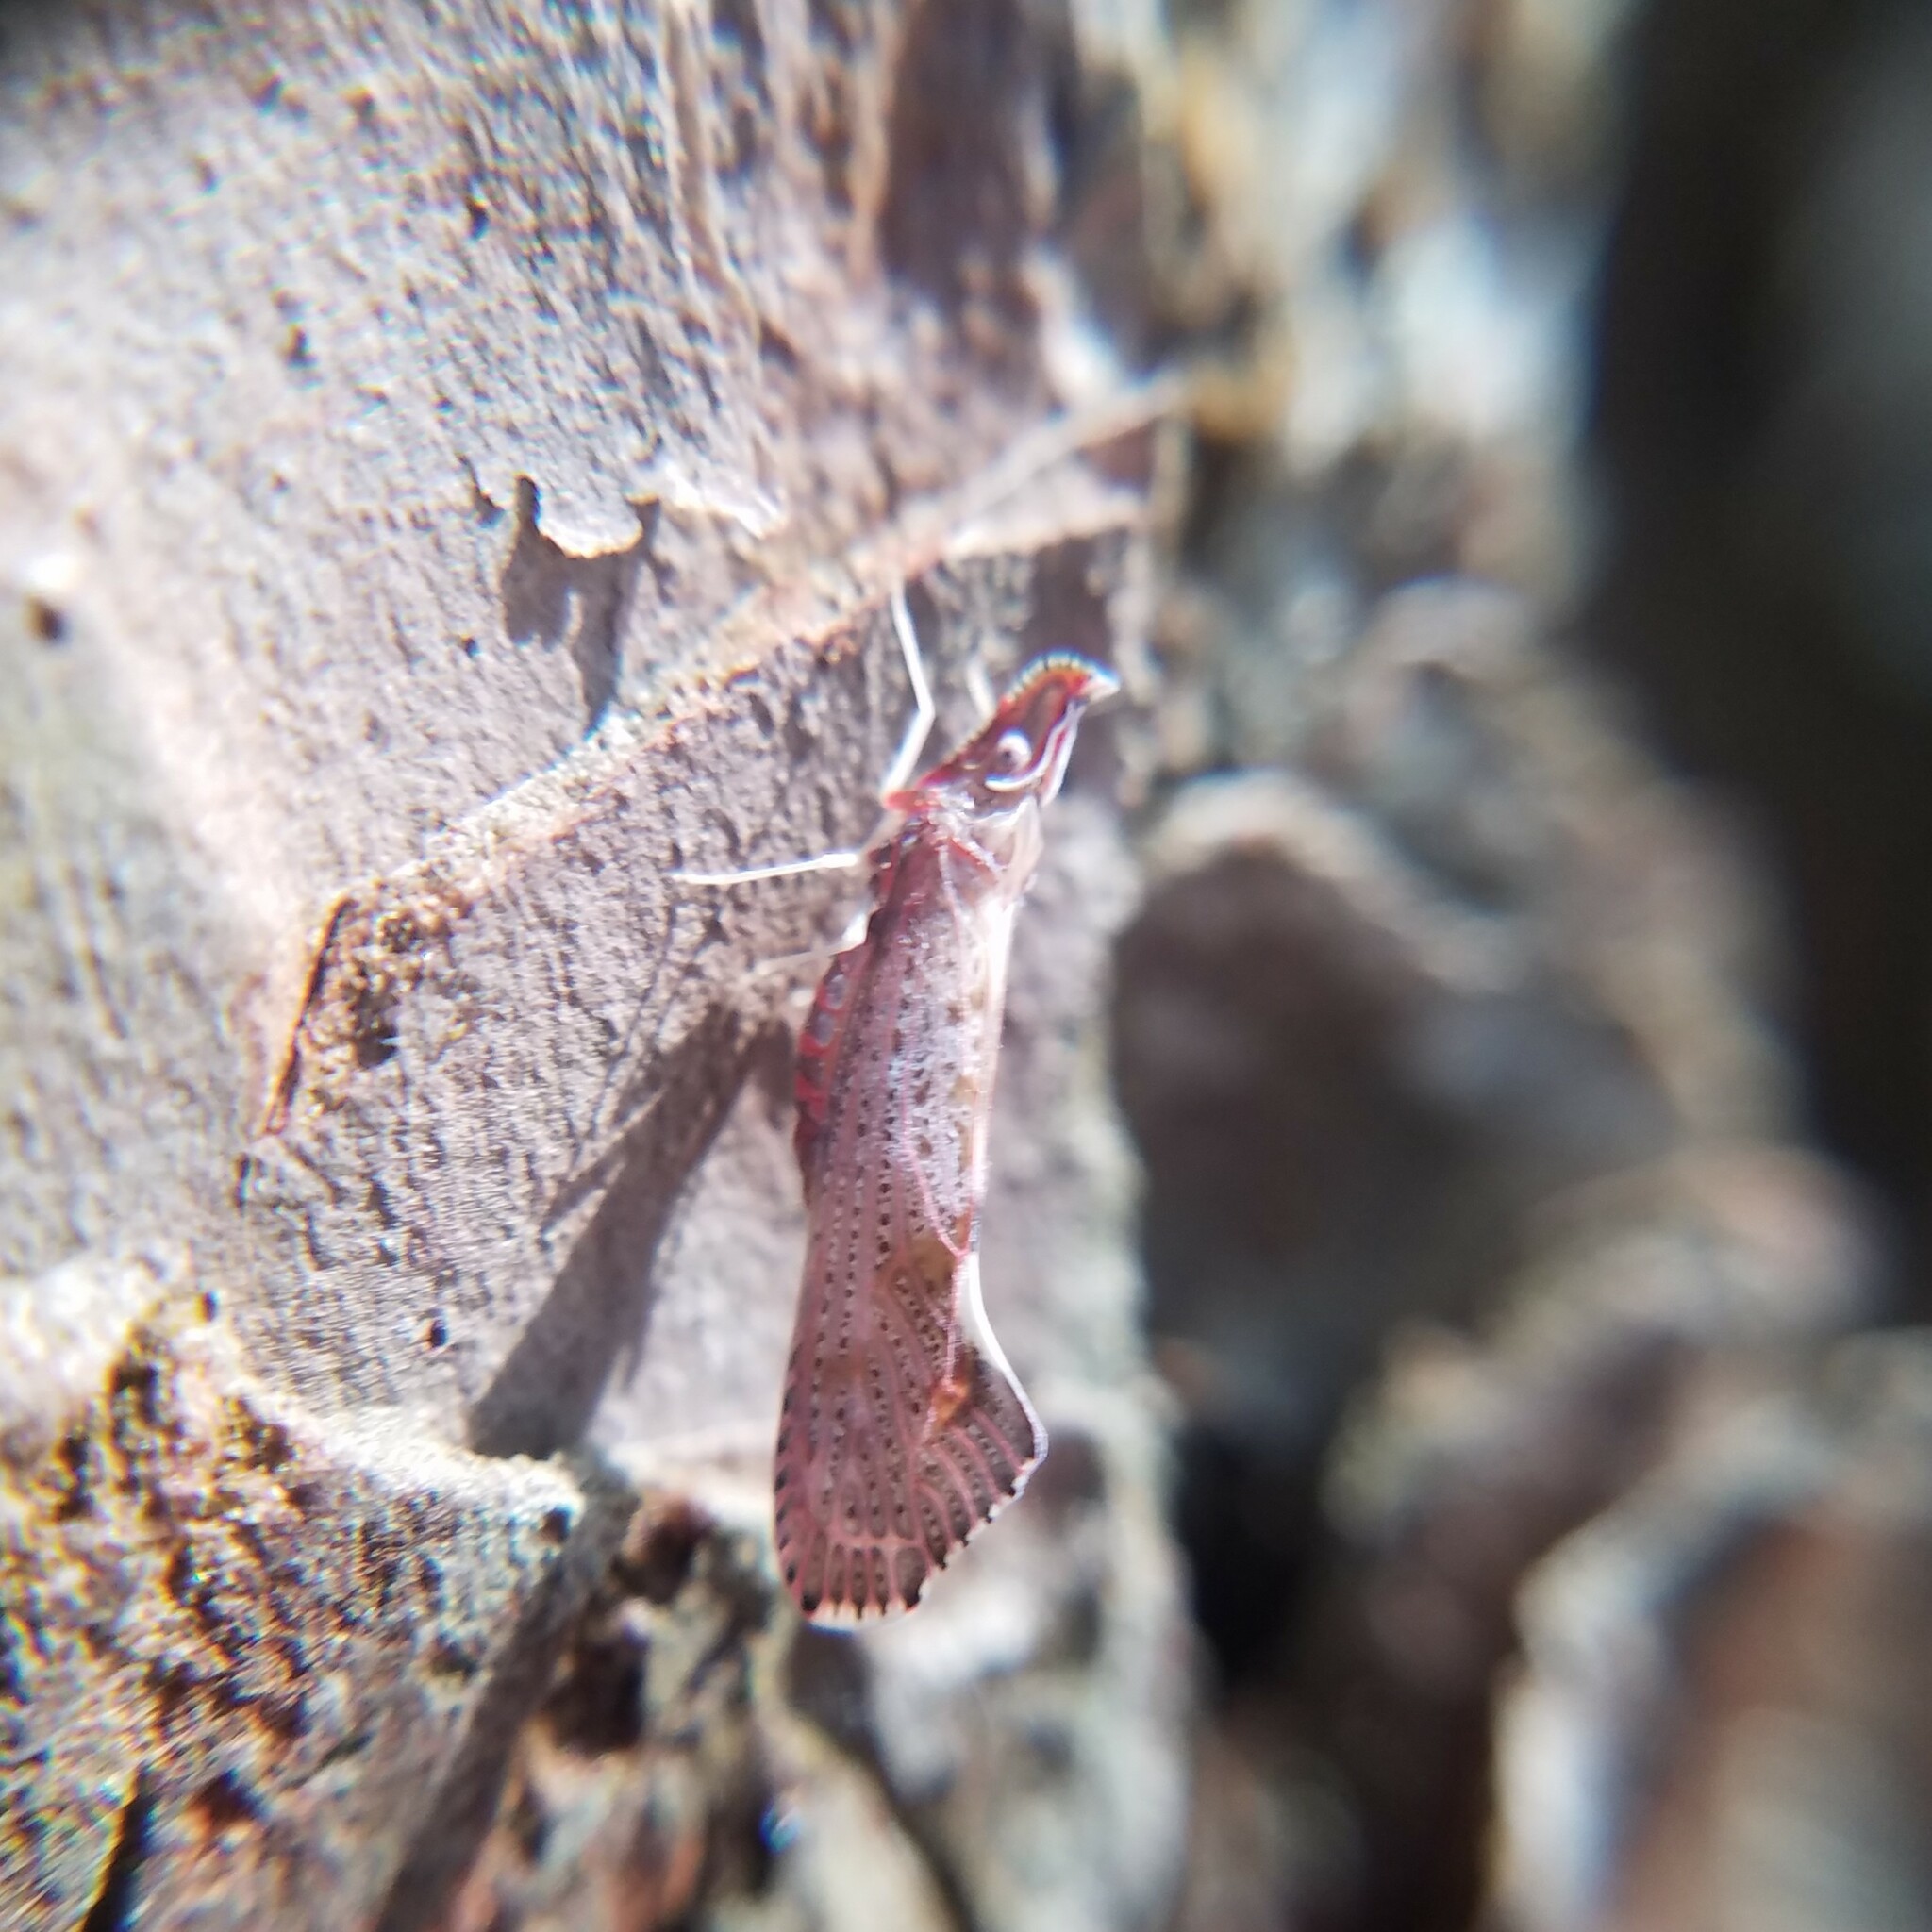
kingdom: Animalia
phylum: Arthropoda
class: Insecta
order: Hemiptera
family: Derbidae
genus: Apache
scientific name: Apache degeeri
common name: Red-fanned planthopper
